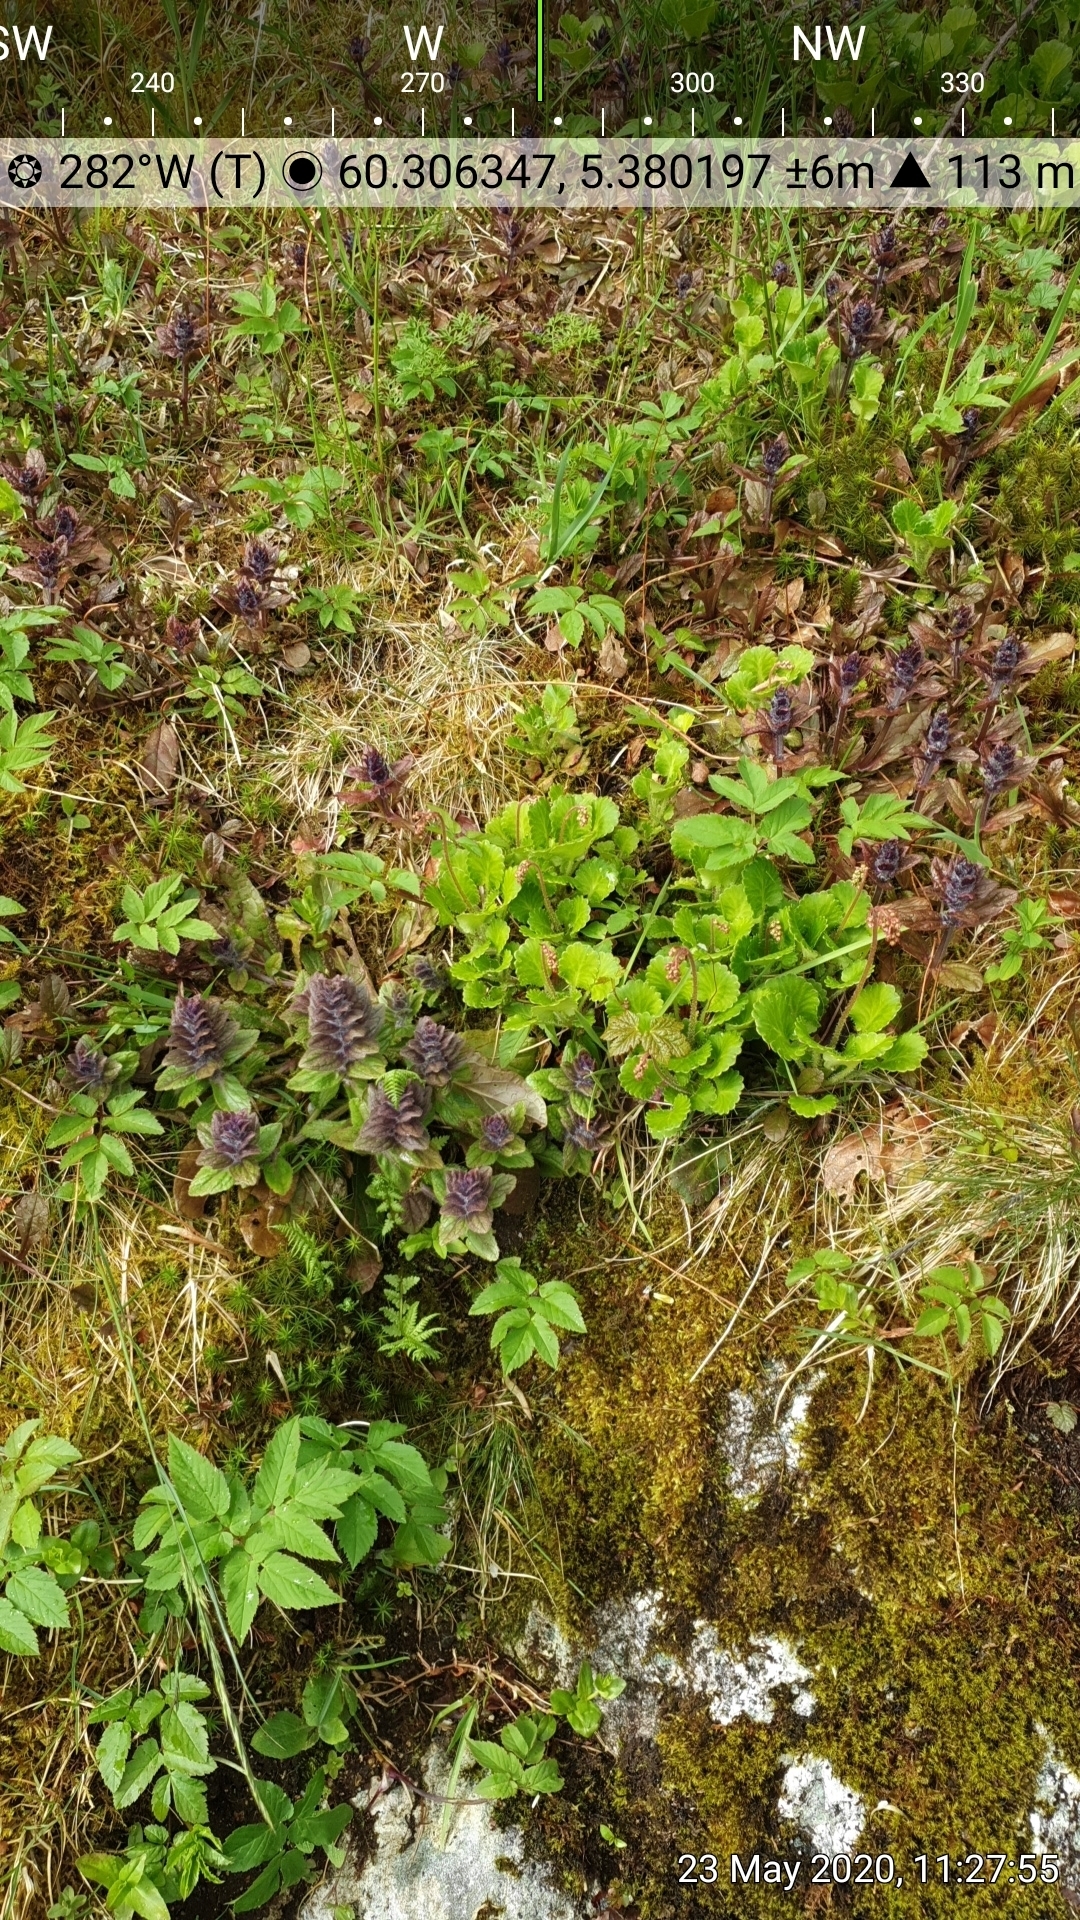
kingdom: Plantae
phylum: Tracheophyta
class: Magnoliopsida
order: Lamiales
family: Lamiaceae
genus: Ajuga
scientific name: Ajuga pyramidalis
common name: Pyramid bugle
